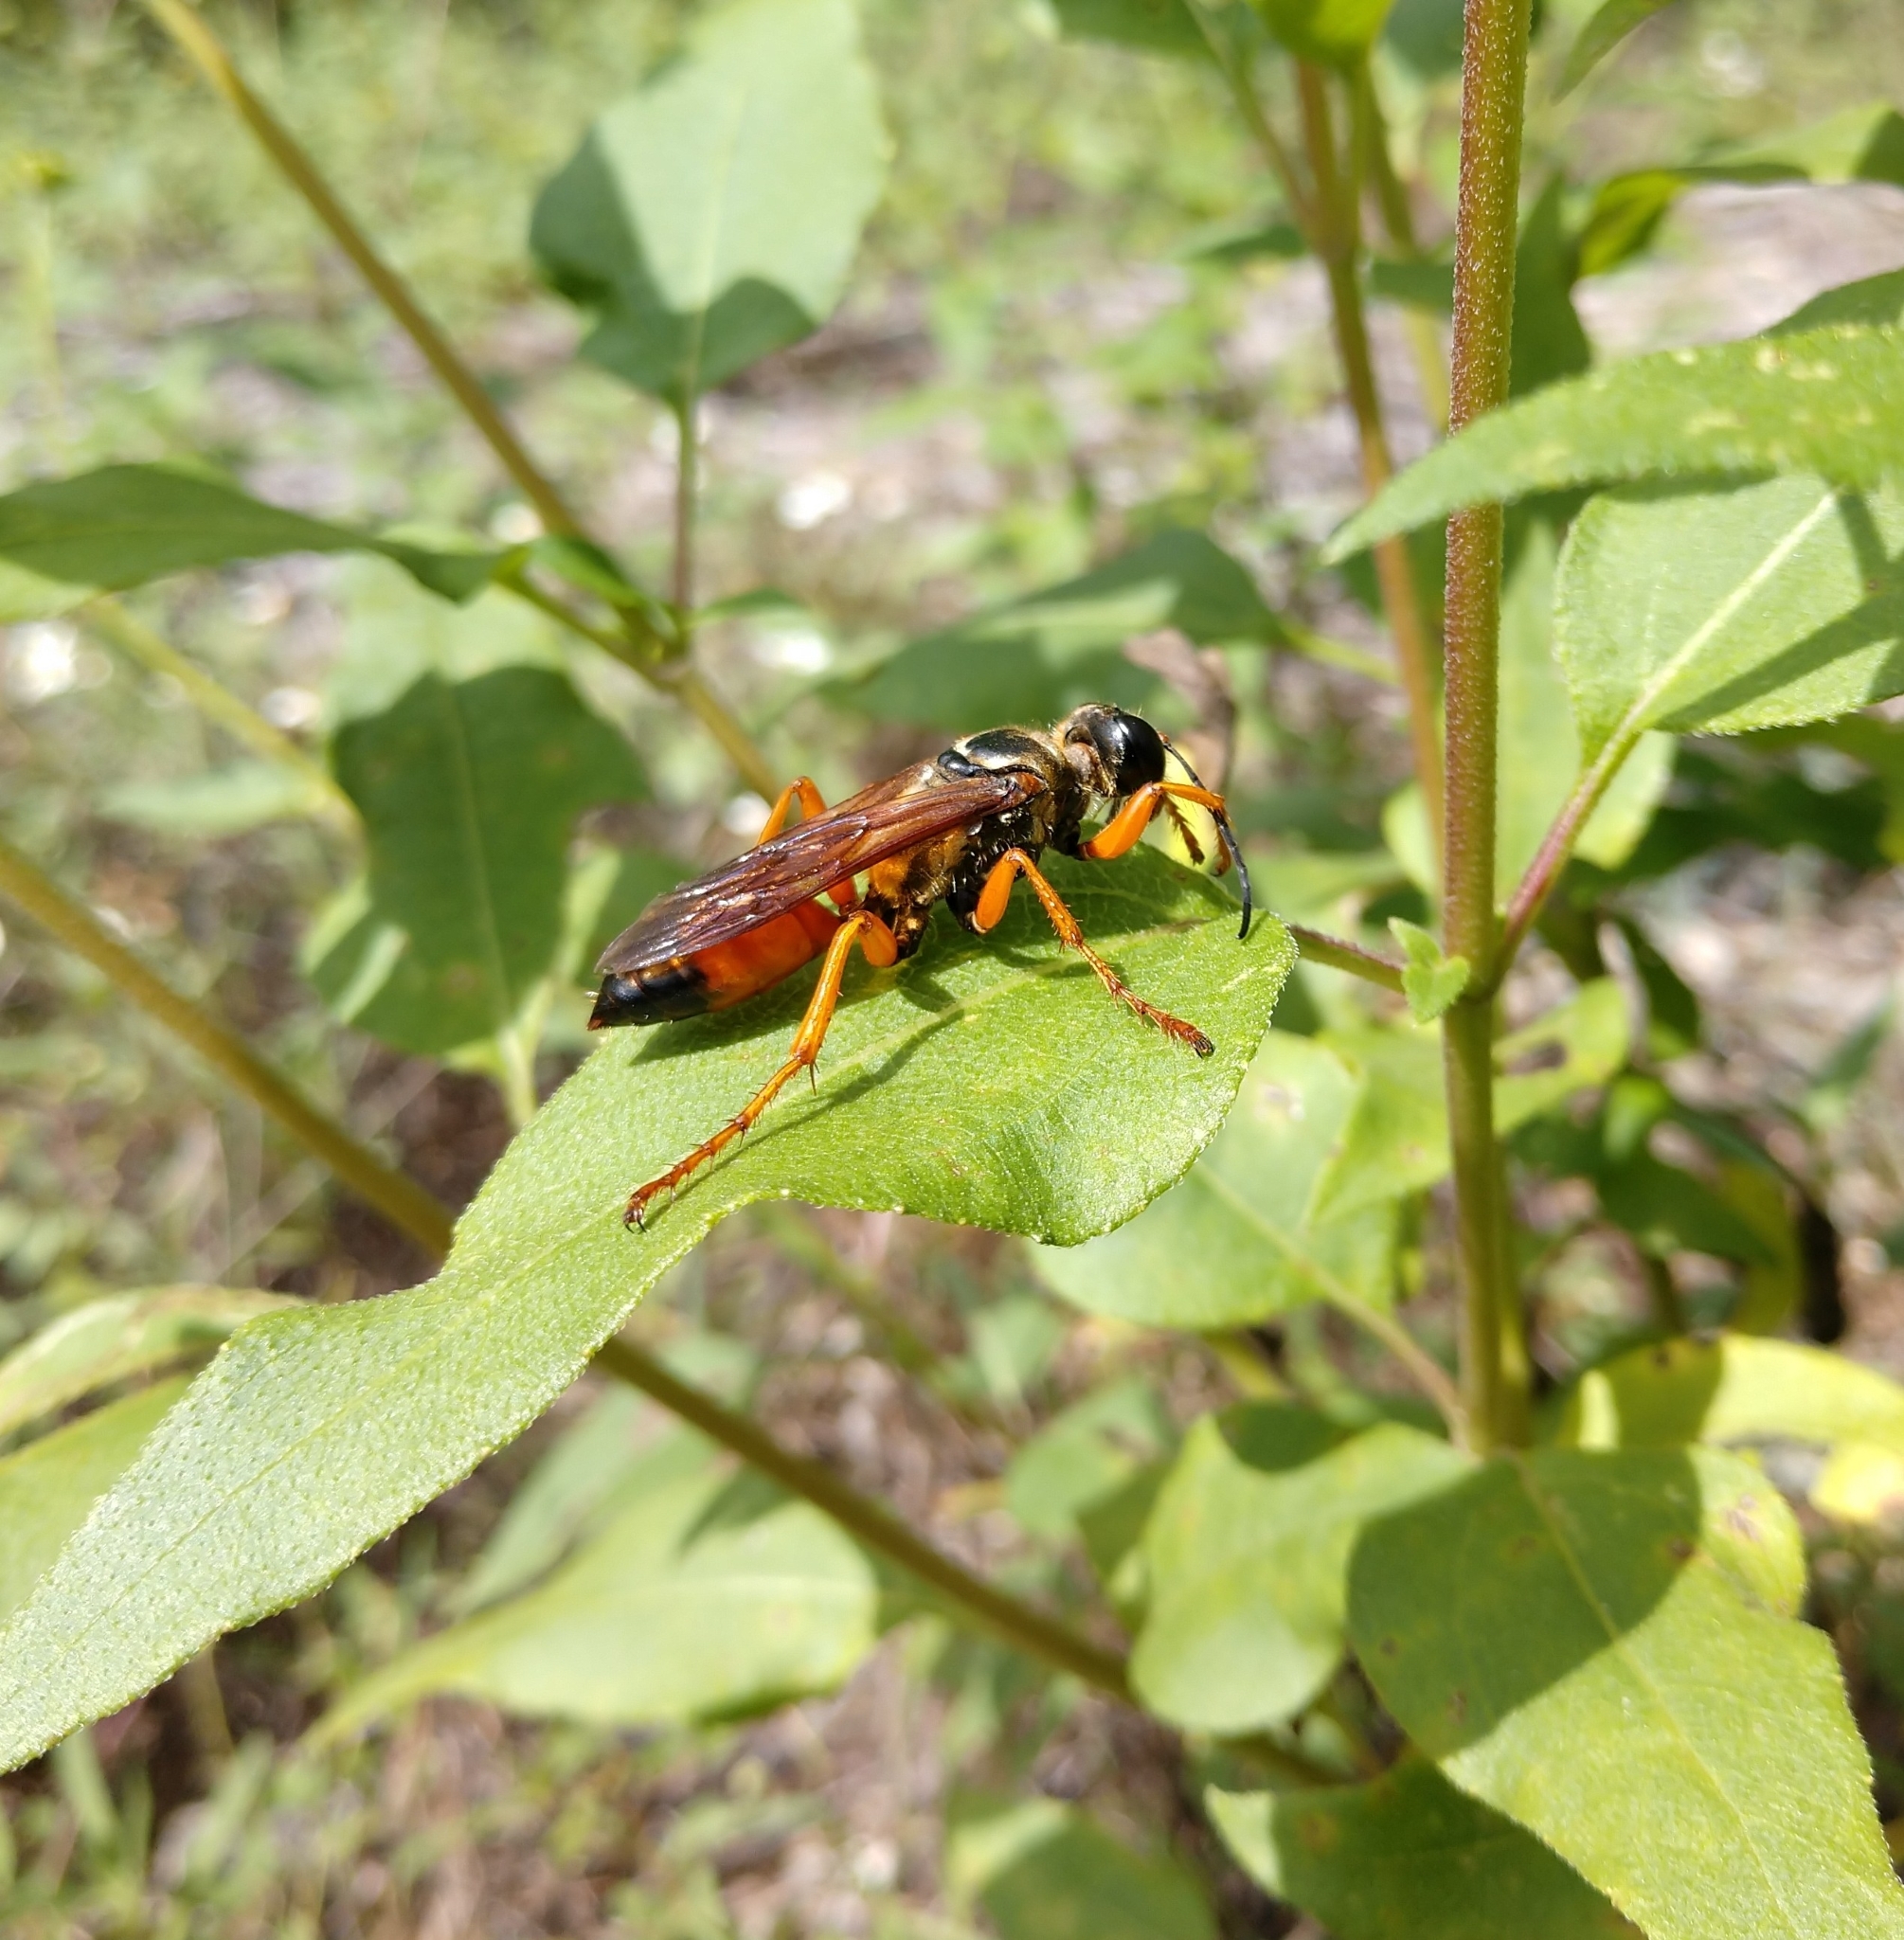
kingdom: Animalia
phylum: Arthropoda
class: Insecta
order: Hymenoptera
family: Sphecidae
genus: Sphex
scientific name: Sphex ichneumoneus
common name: Great golden digger wasp
